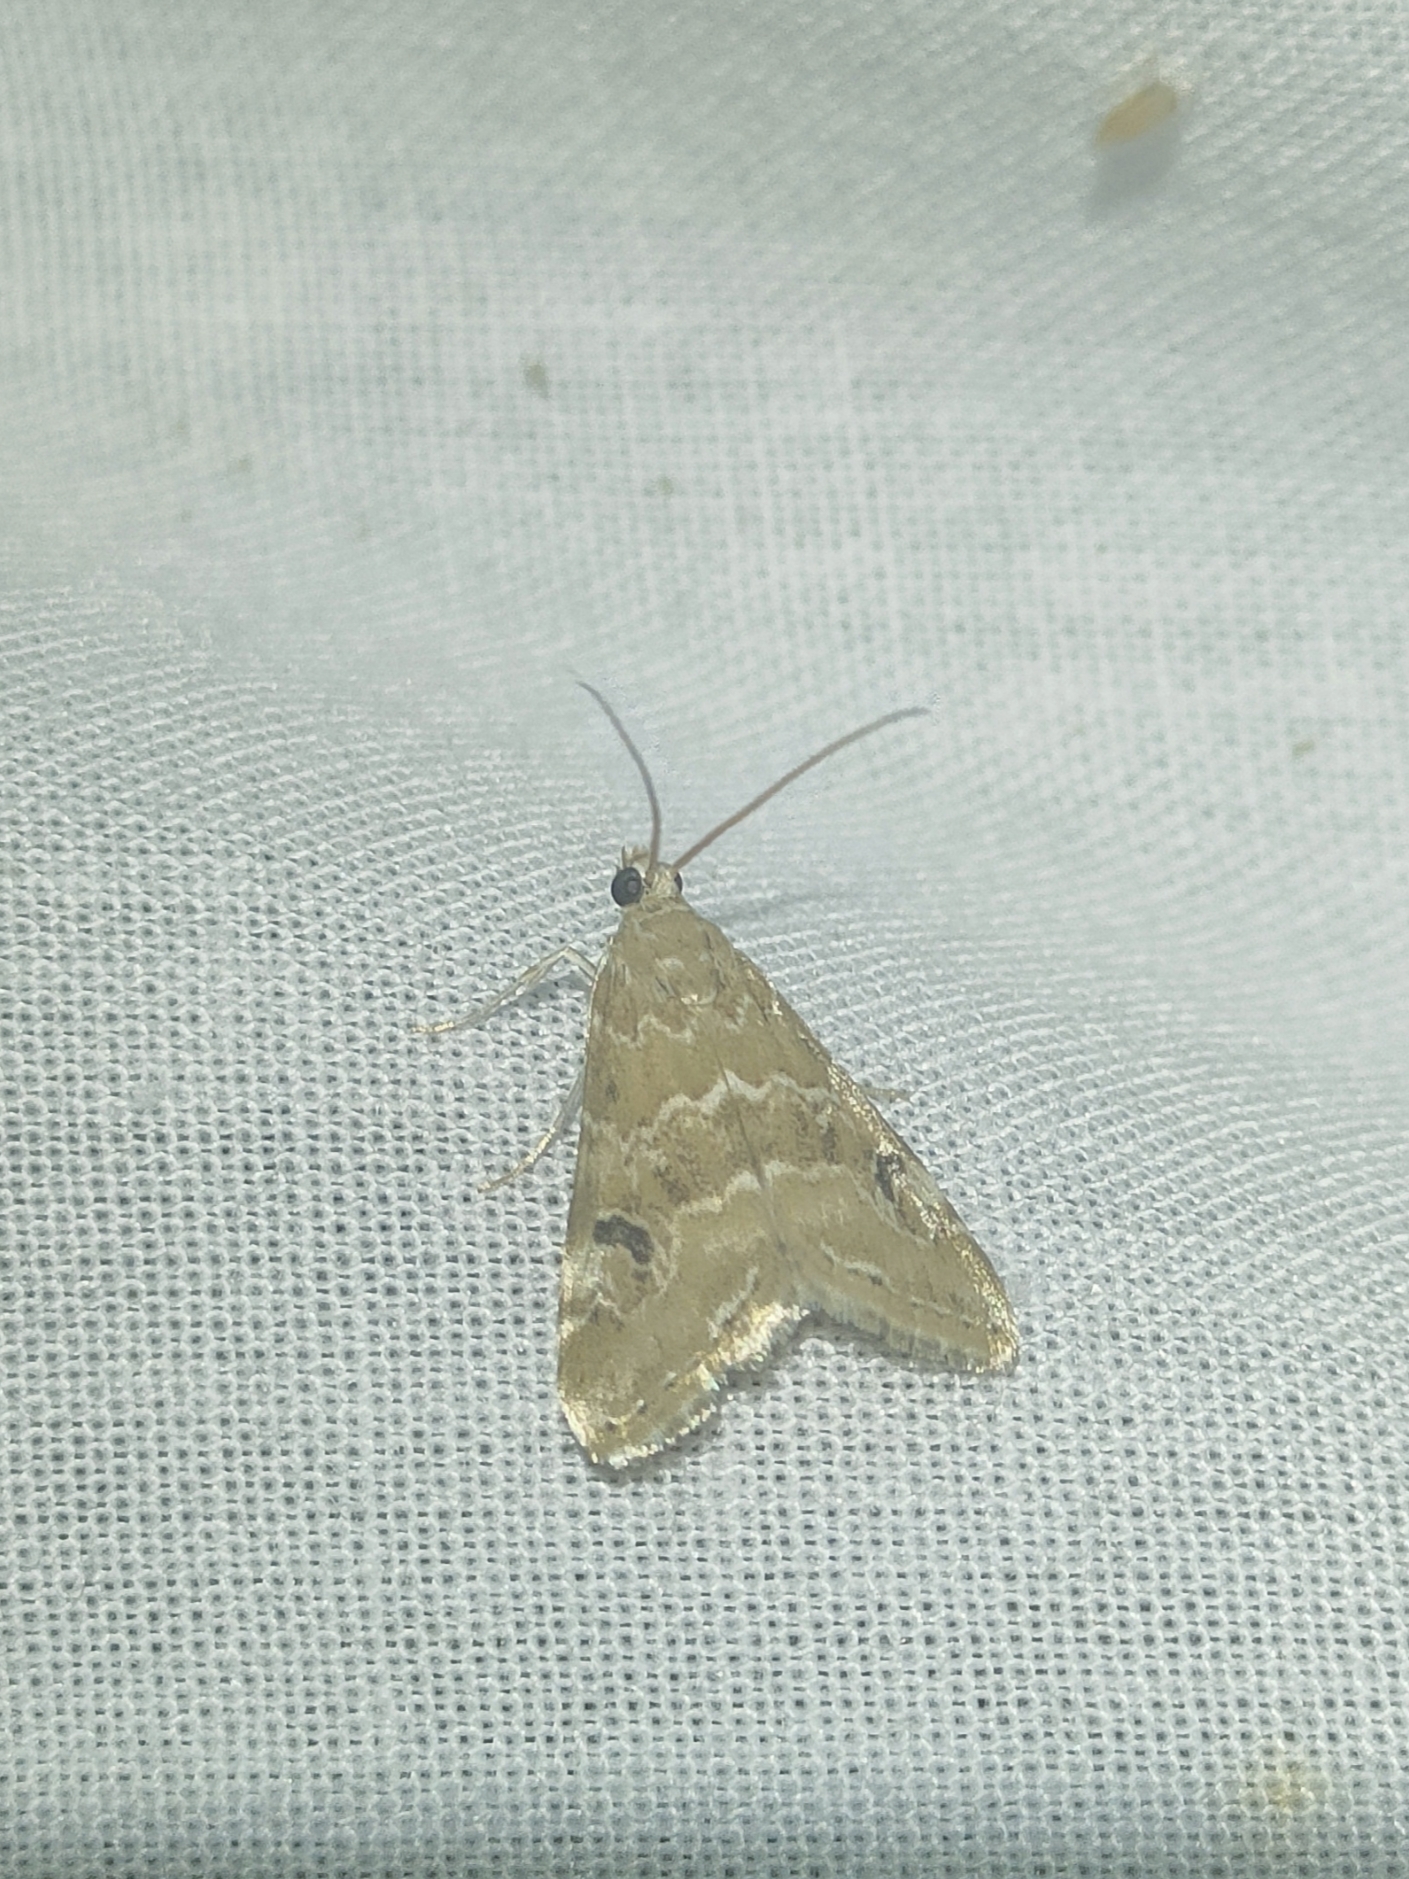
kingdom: Animalia
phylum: Arthropoda
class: Insecta
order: Lepidoptera
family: Crambidae
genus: Hellula
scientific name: Hellula undalis
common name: Cabbage webworm
